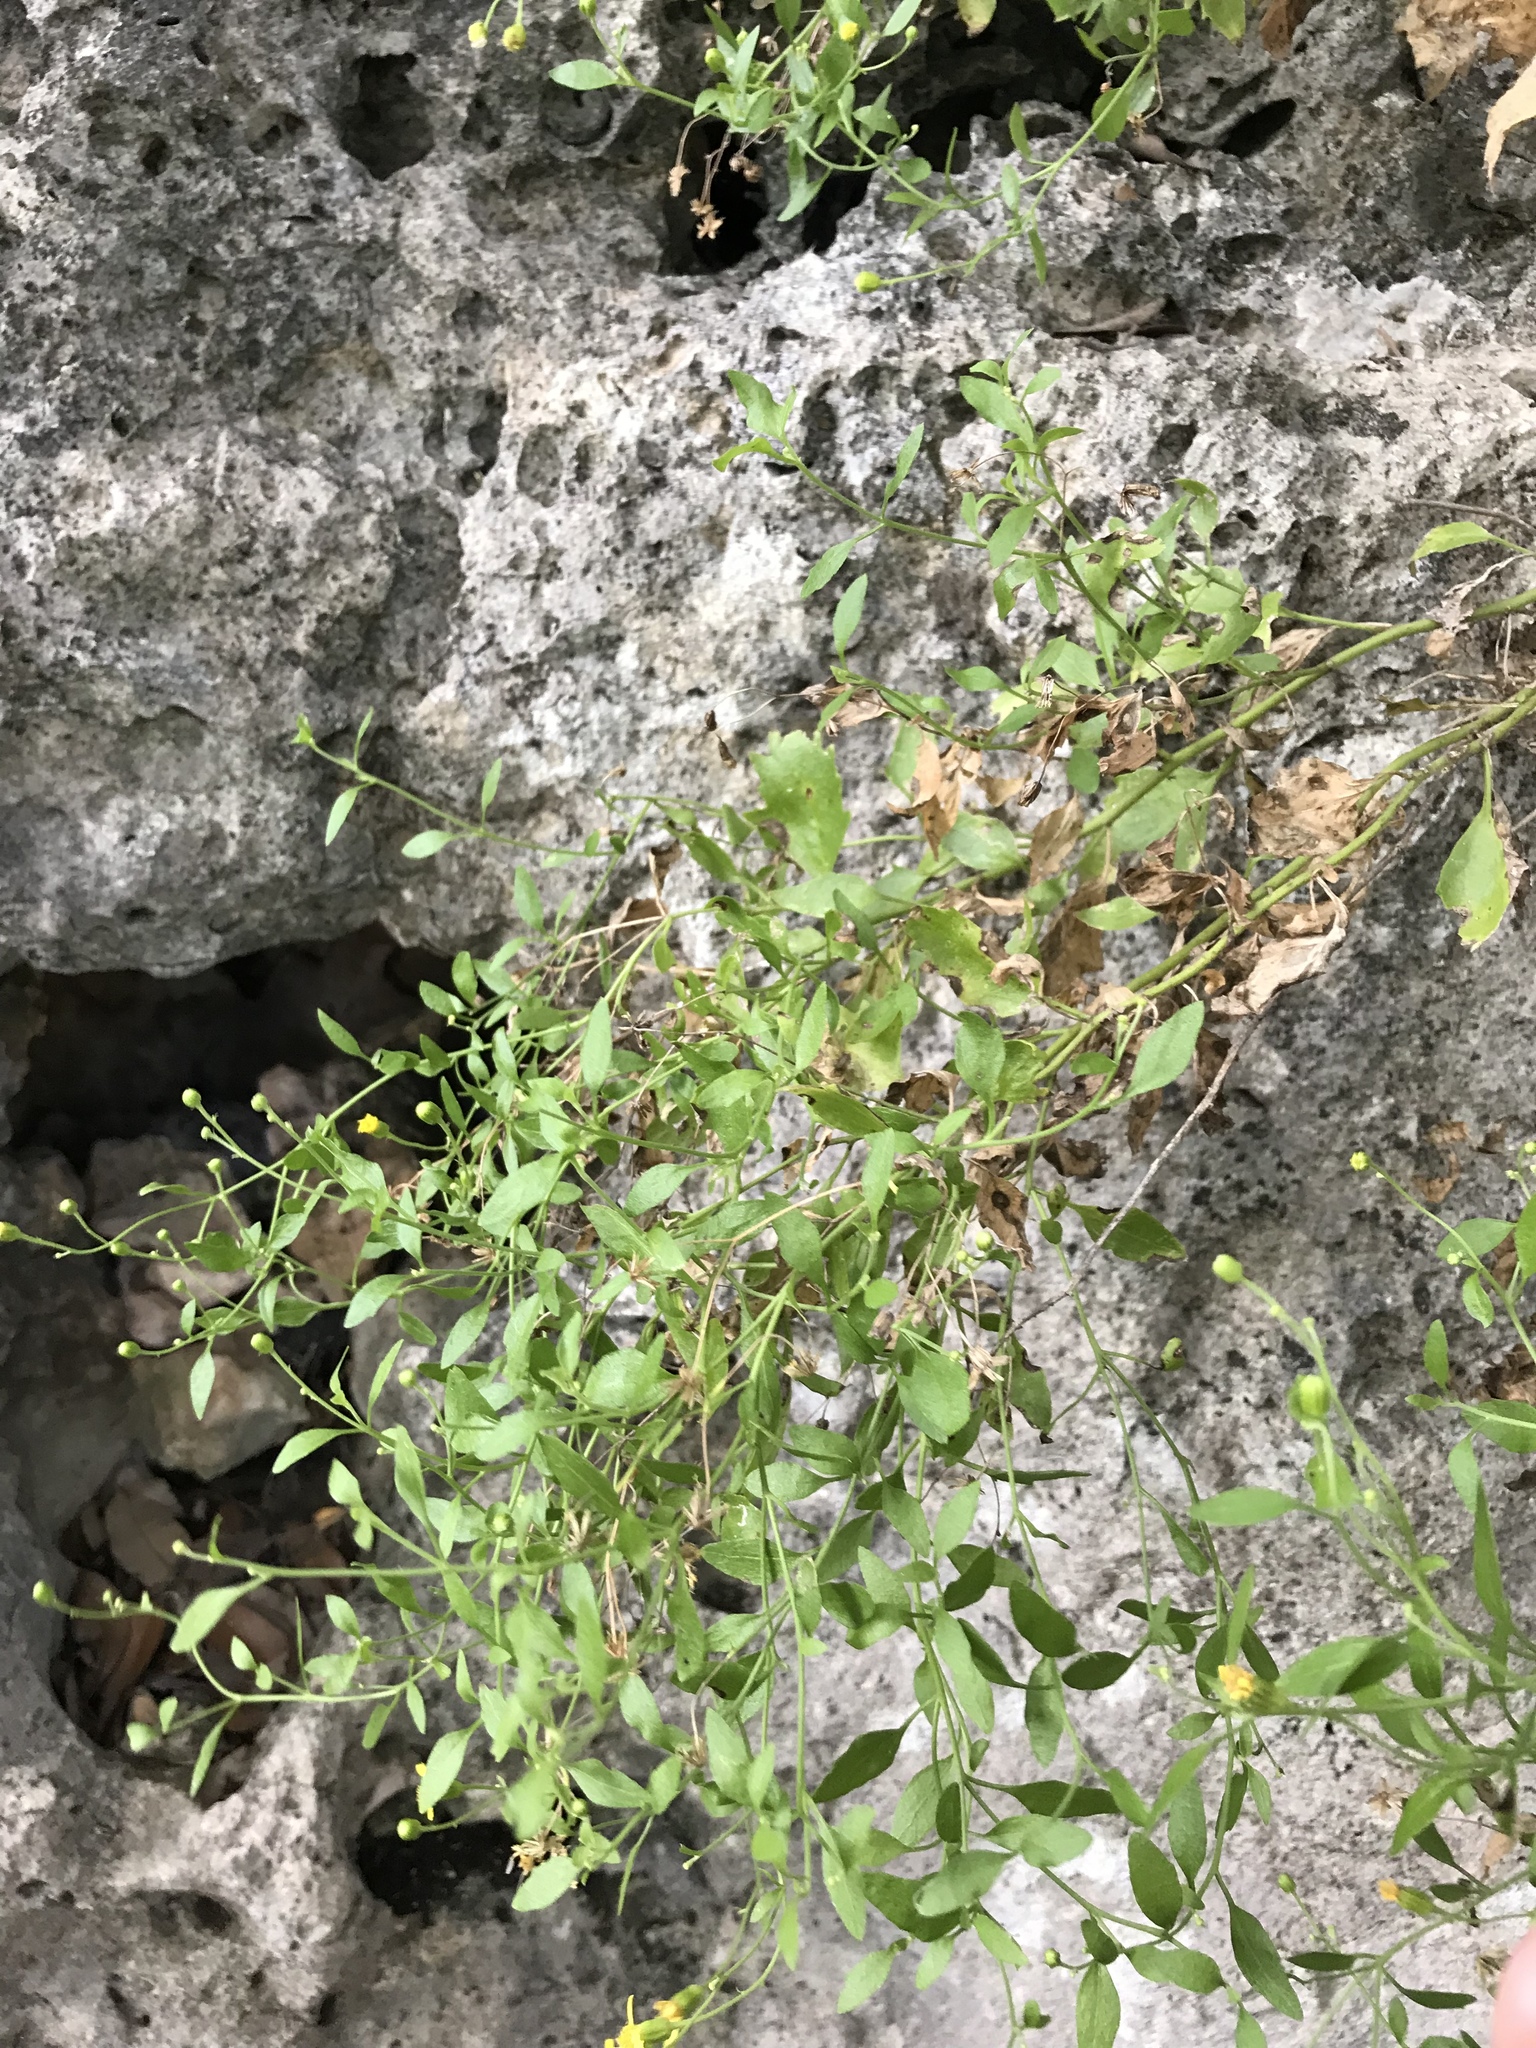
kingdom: Plantae
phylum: Tracheophyta
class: Magnoliopsida
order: Asterales
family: Asteraceae
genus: Laphamia
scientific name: Laphamia lindheimeri
